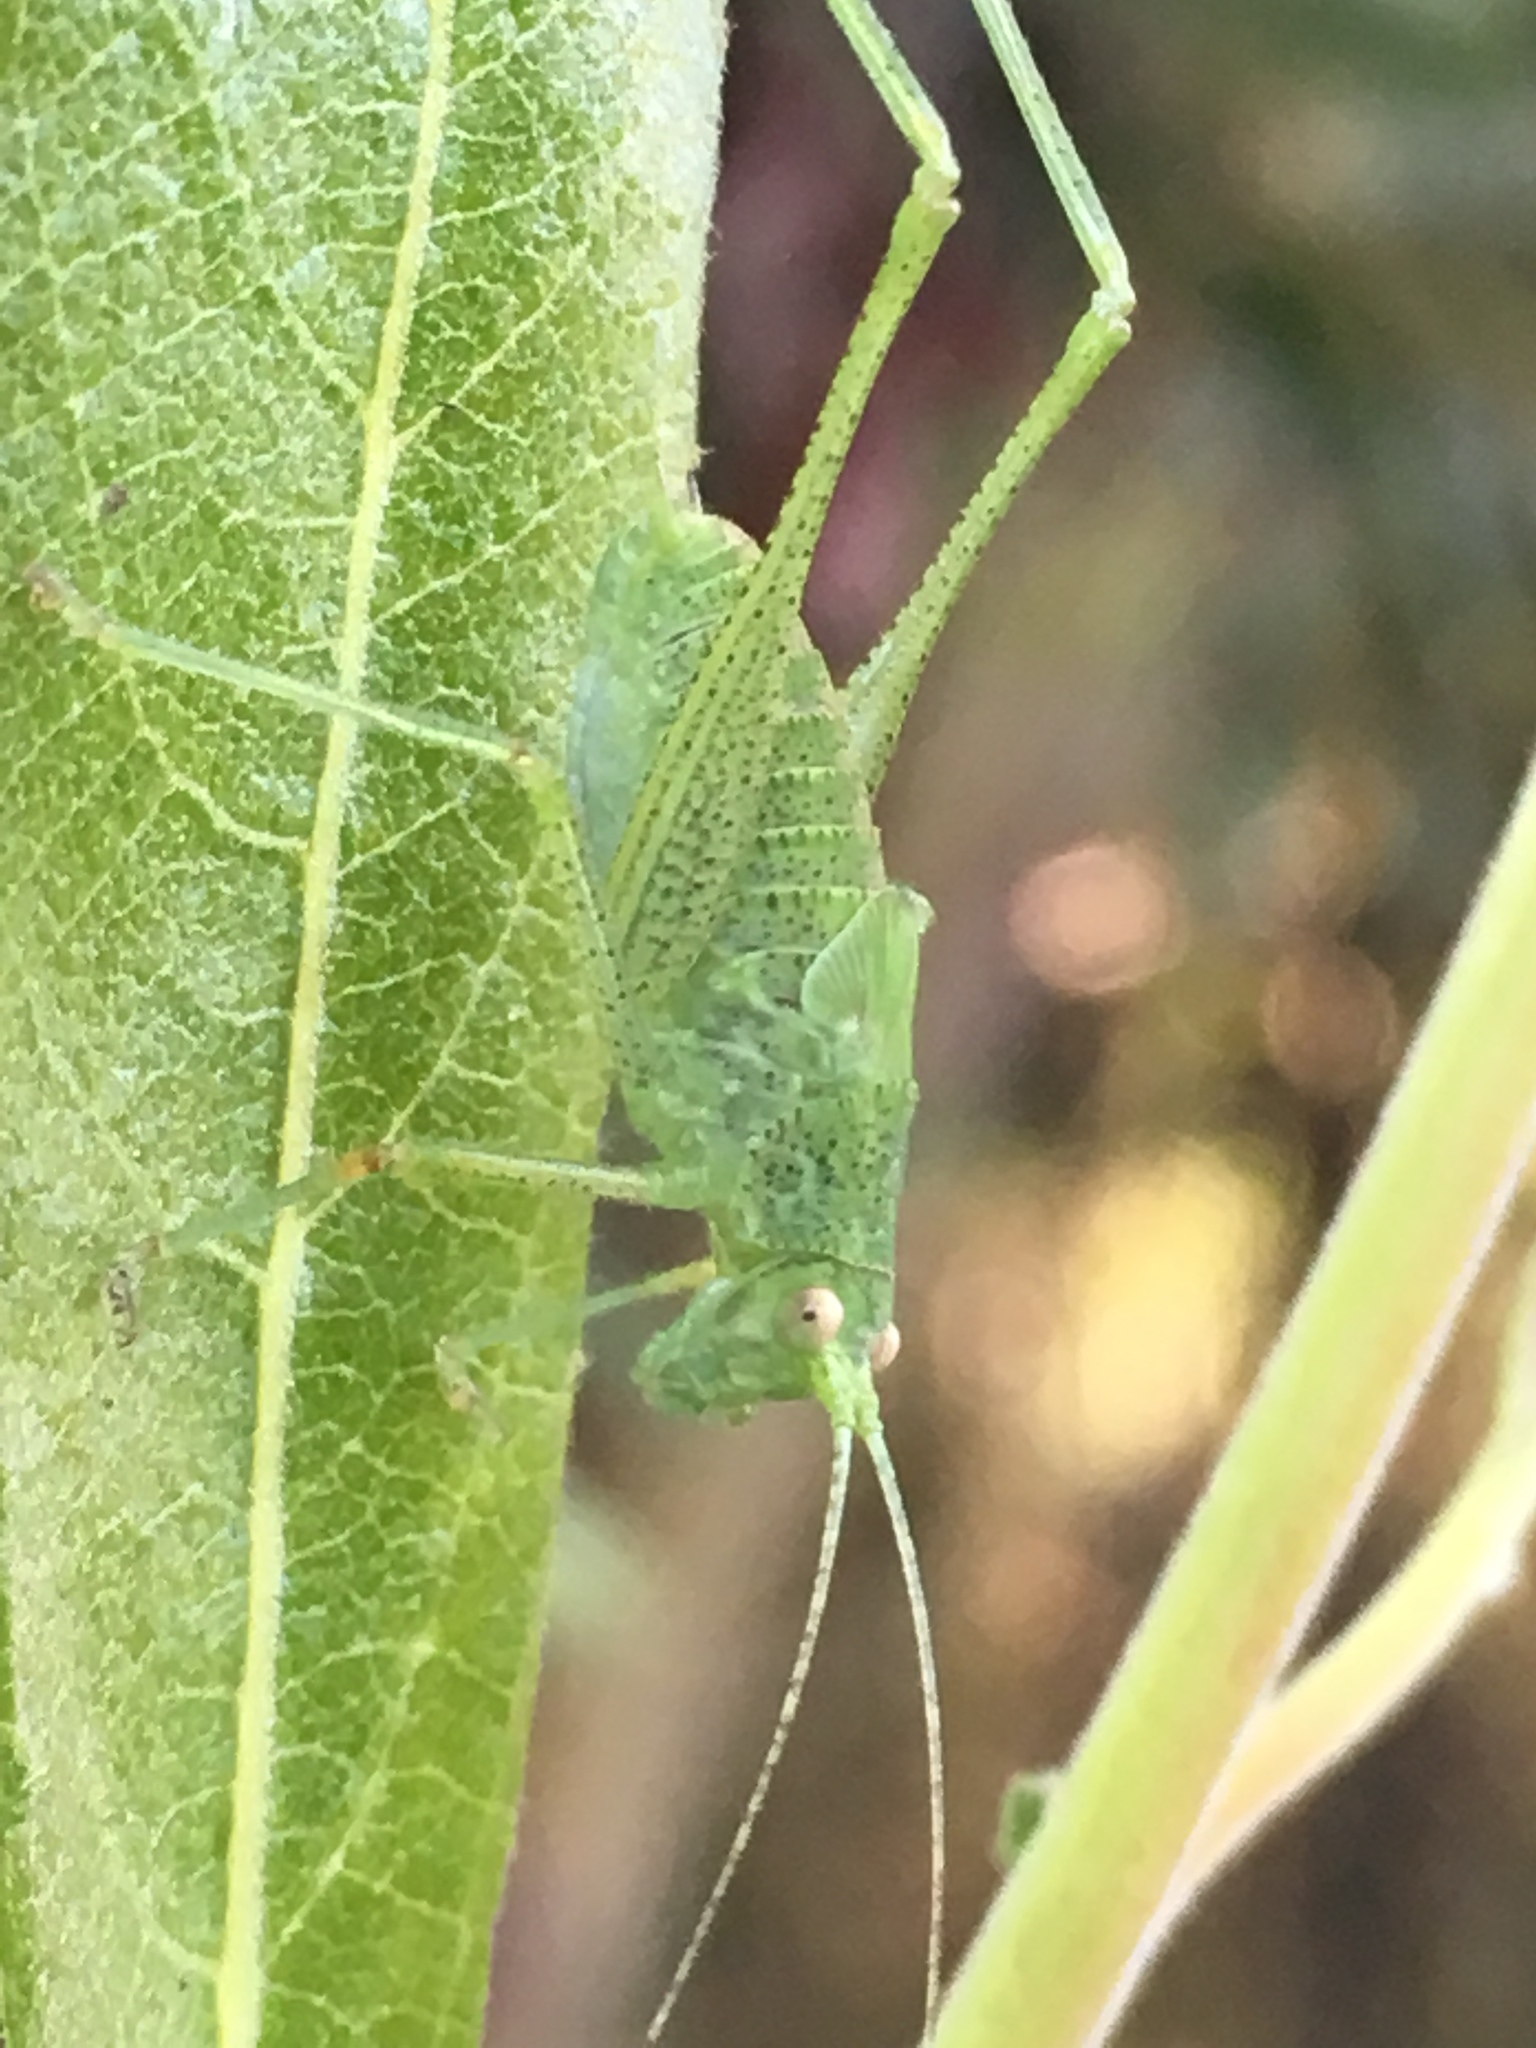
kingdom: Animalia
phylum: Arthropoda
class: Insecta
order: Orthoptera
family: Tettigoniidae
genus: Phaneroptera
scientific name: Phaneroptera nana
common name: Southern sickle bush-cricket
